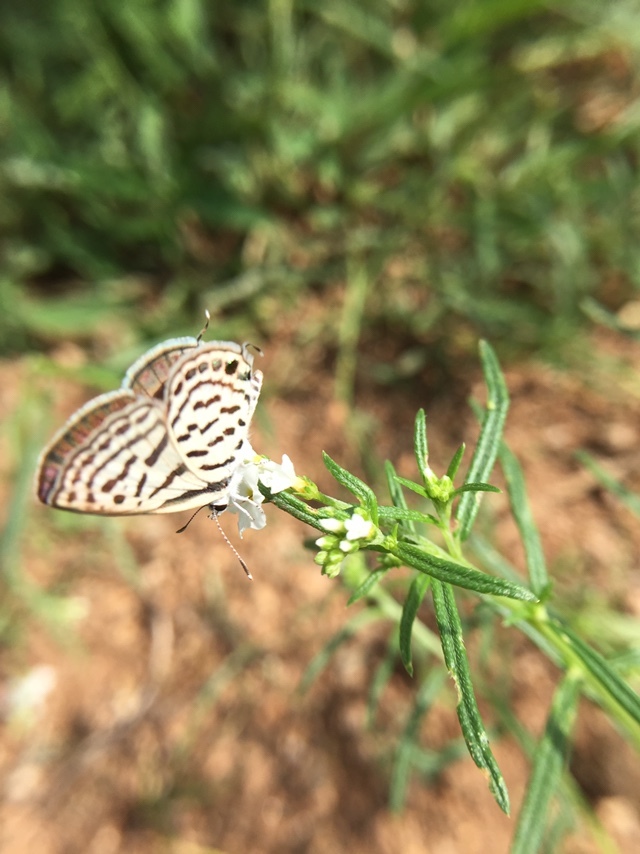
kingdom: Animalia
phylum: Arthropoda
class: Insecta
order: Lepidoptera
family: Lycaenidae
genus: Tarucus
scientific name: Tarucus
